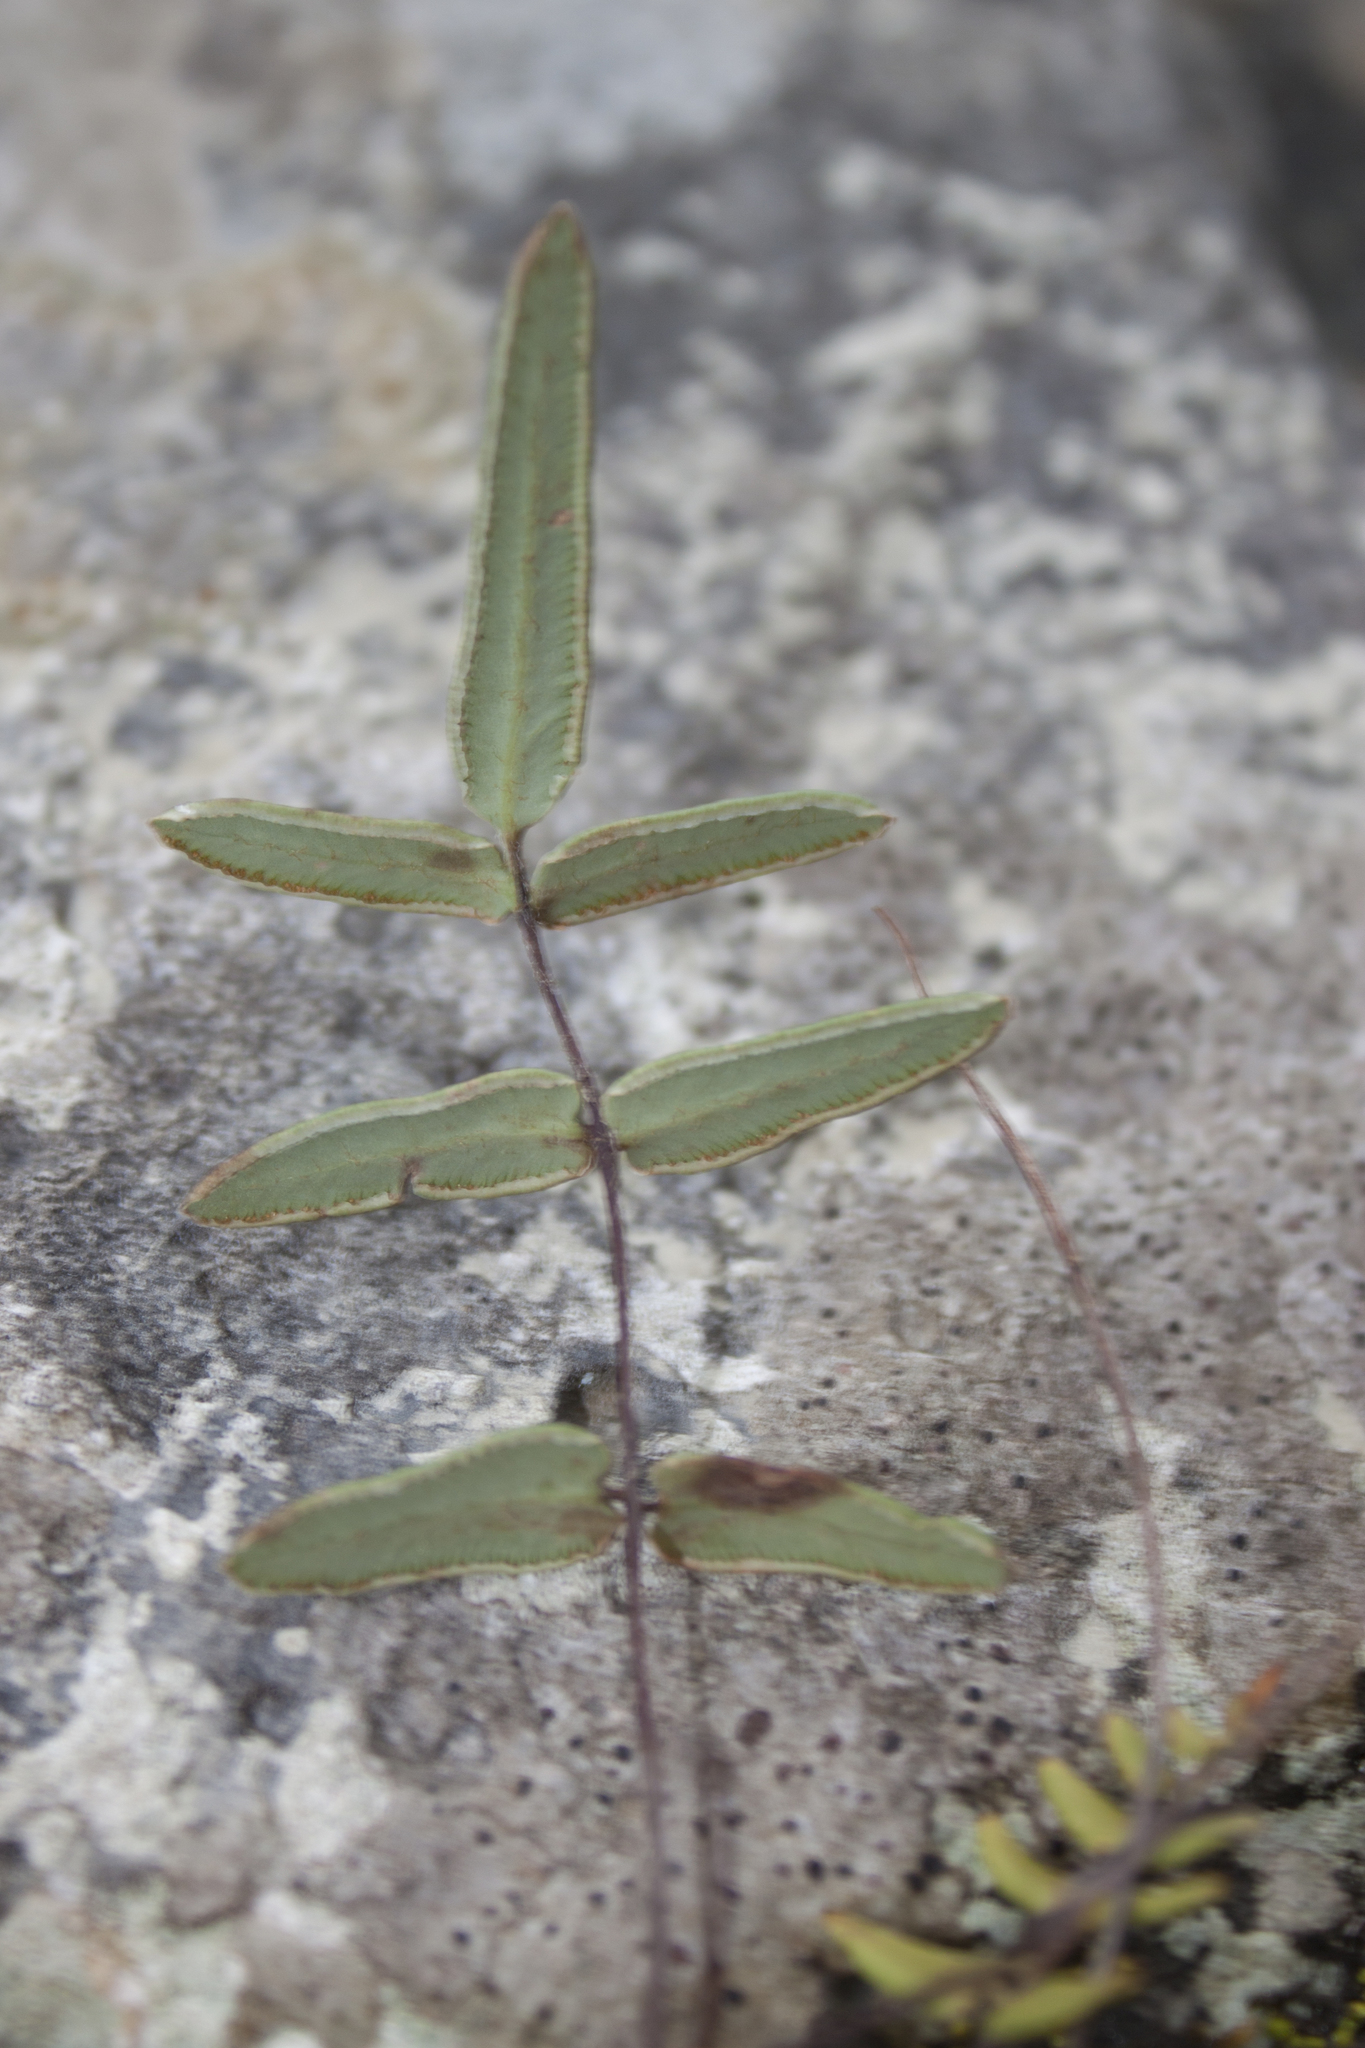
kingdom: Plantae
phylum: Tracheophyta
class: Polypodiopsida
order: Polypodiales
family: Pteridaceae
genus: Pellaea
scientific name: Pellaea atropurpurea
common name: Hairy cliffbrake
